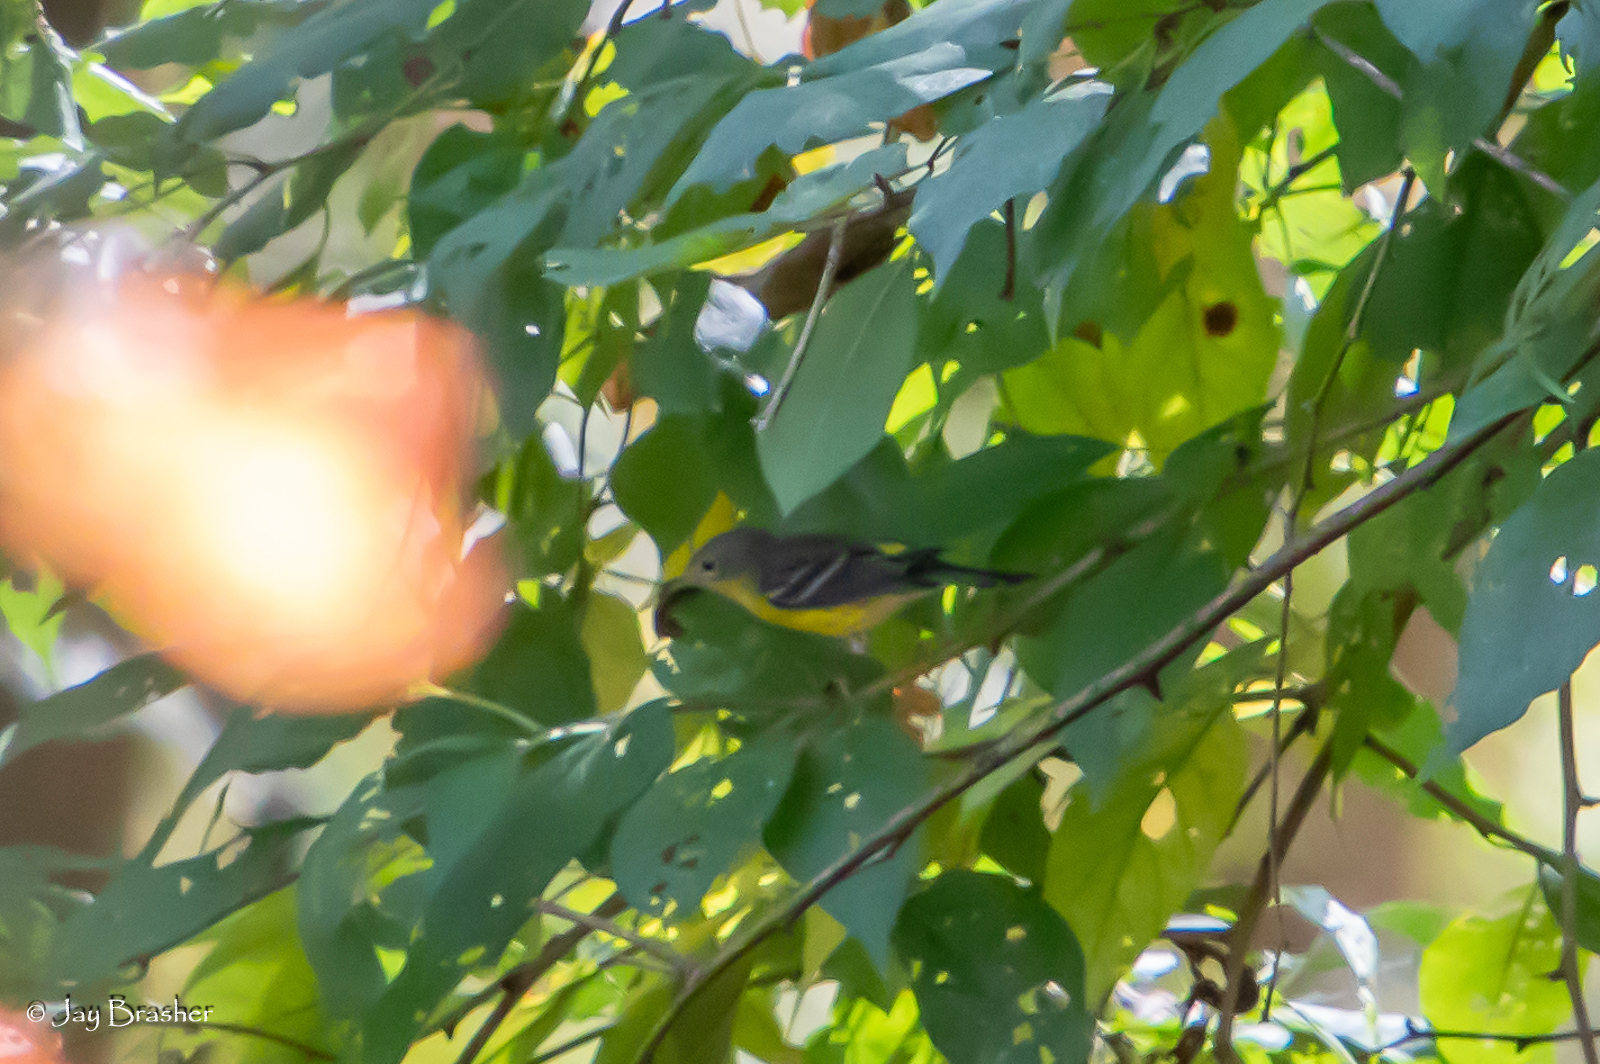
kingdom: Animalia
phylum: Chordata
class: Aves
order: Passeriformes
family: Parulidae
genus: Setophaga
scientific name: Setophaga magnolia
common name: Magnolia warbler
